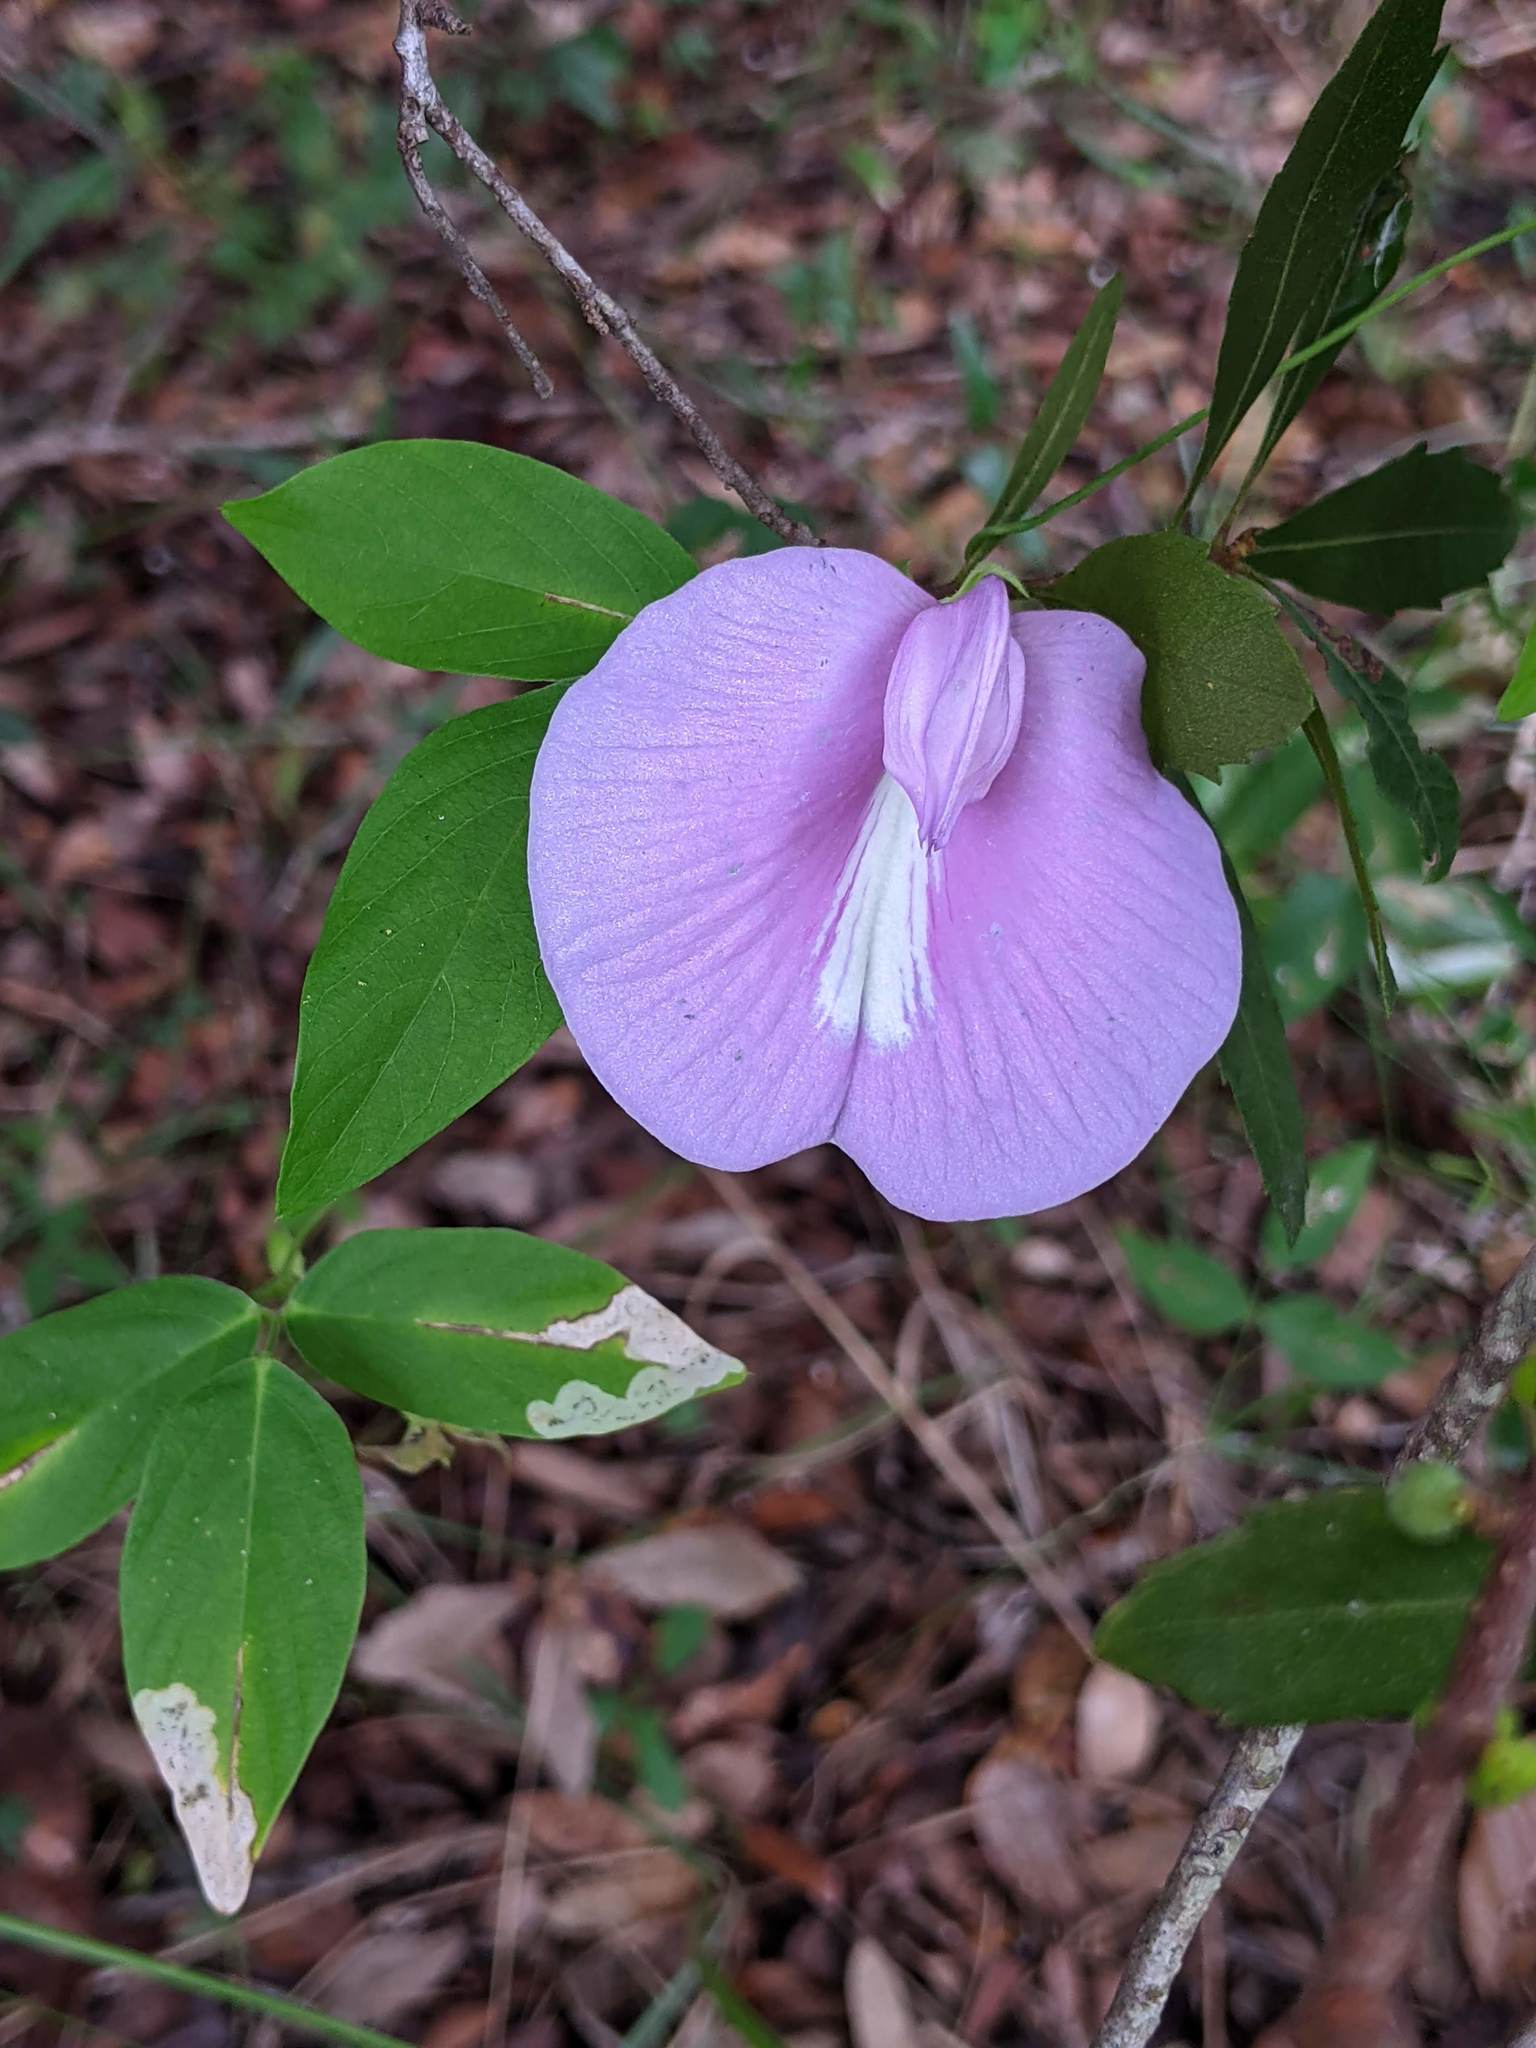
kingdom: Plantae
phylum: Tracheophyta
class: Magnoliopsida
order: Fabales
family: Fabaceae
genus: Centrosema
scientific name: Centrosema virginianum
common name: Butterfly-pea
